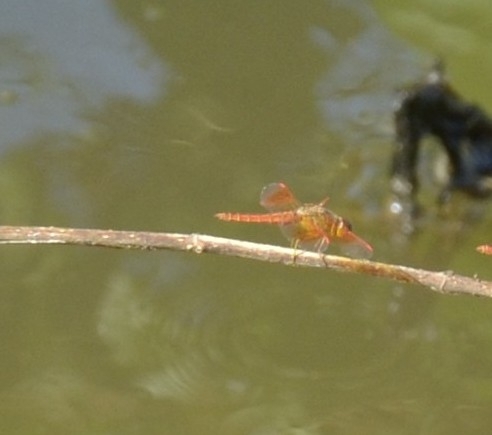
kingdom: Animalia
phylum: Arthropoda
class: Insecta
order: Odonata
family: Libellulidae
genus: Brachythemis
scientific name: Brachythemis contaminata
